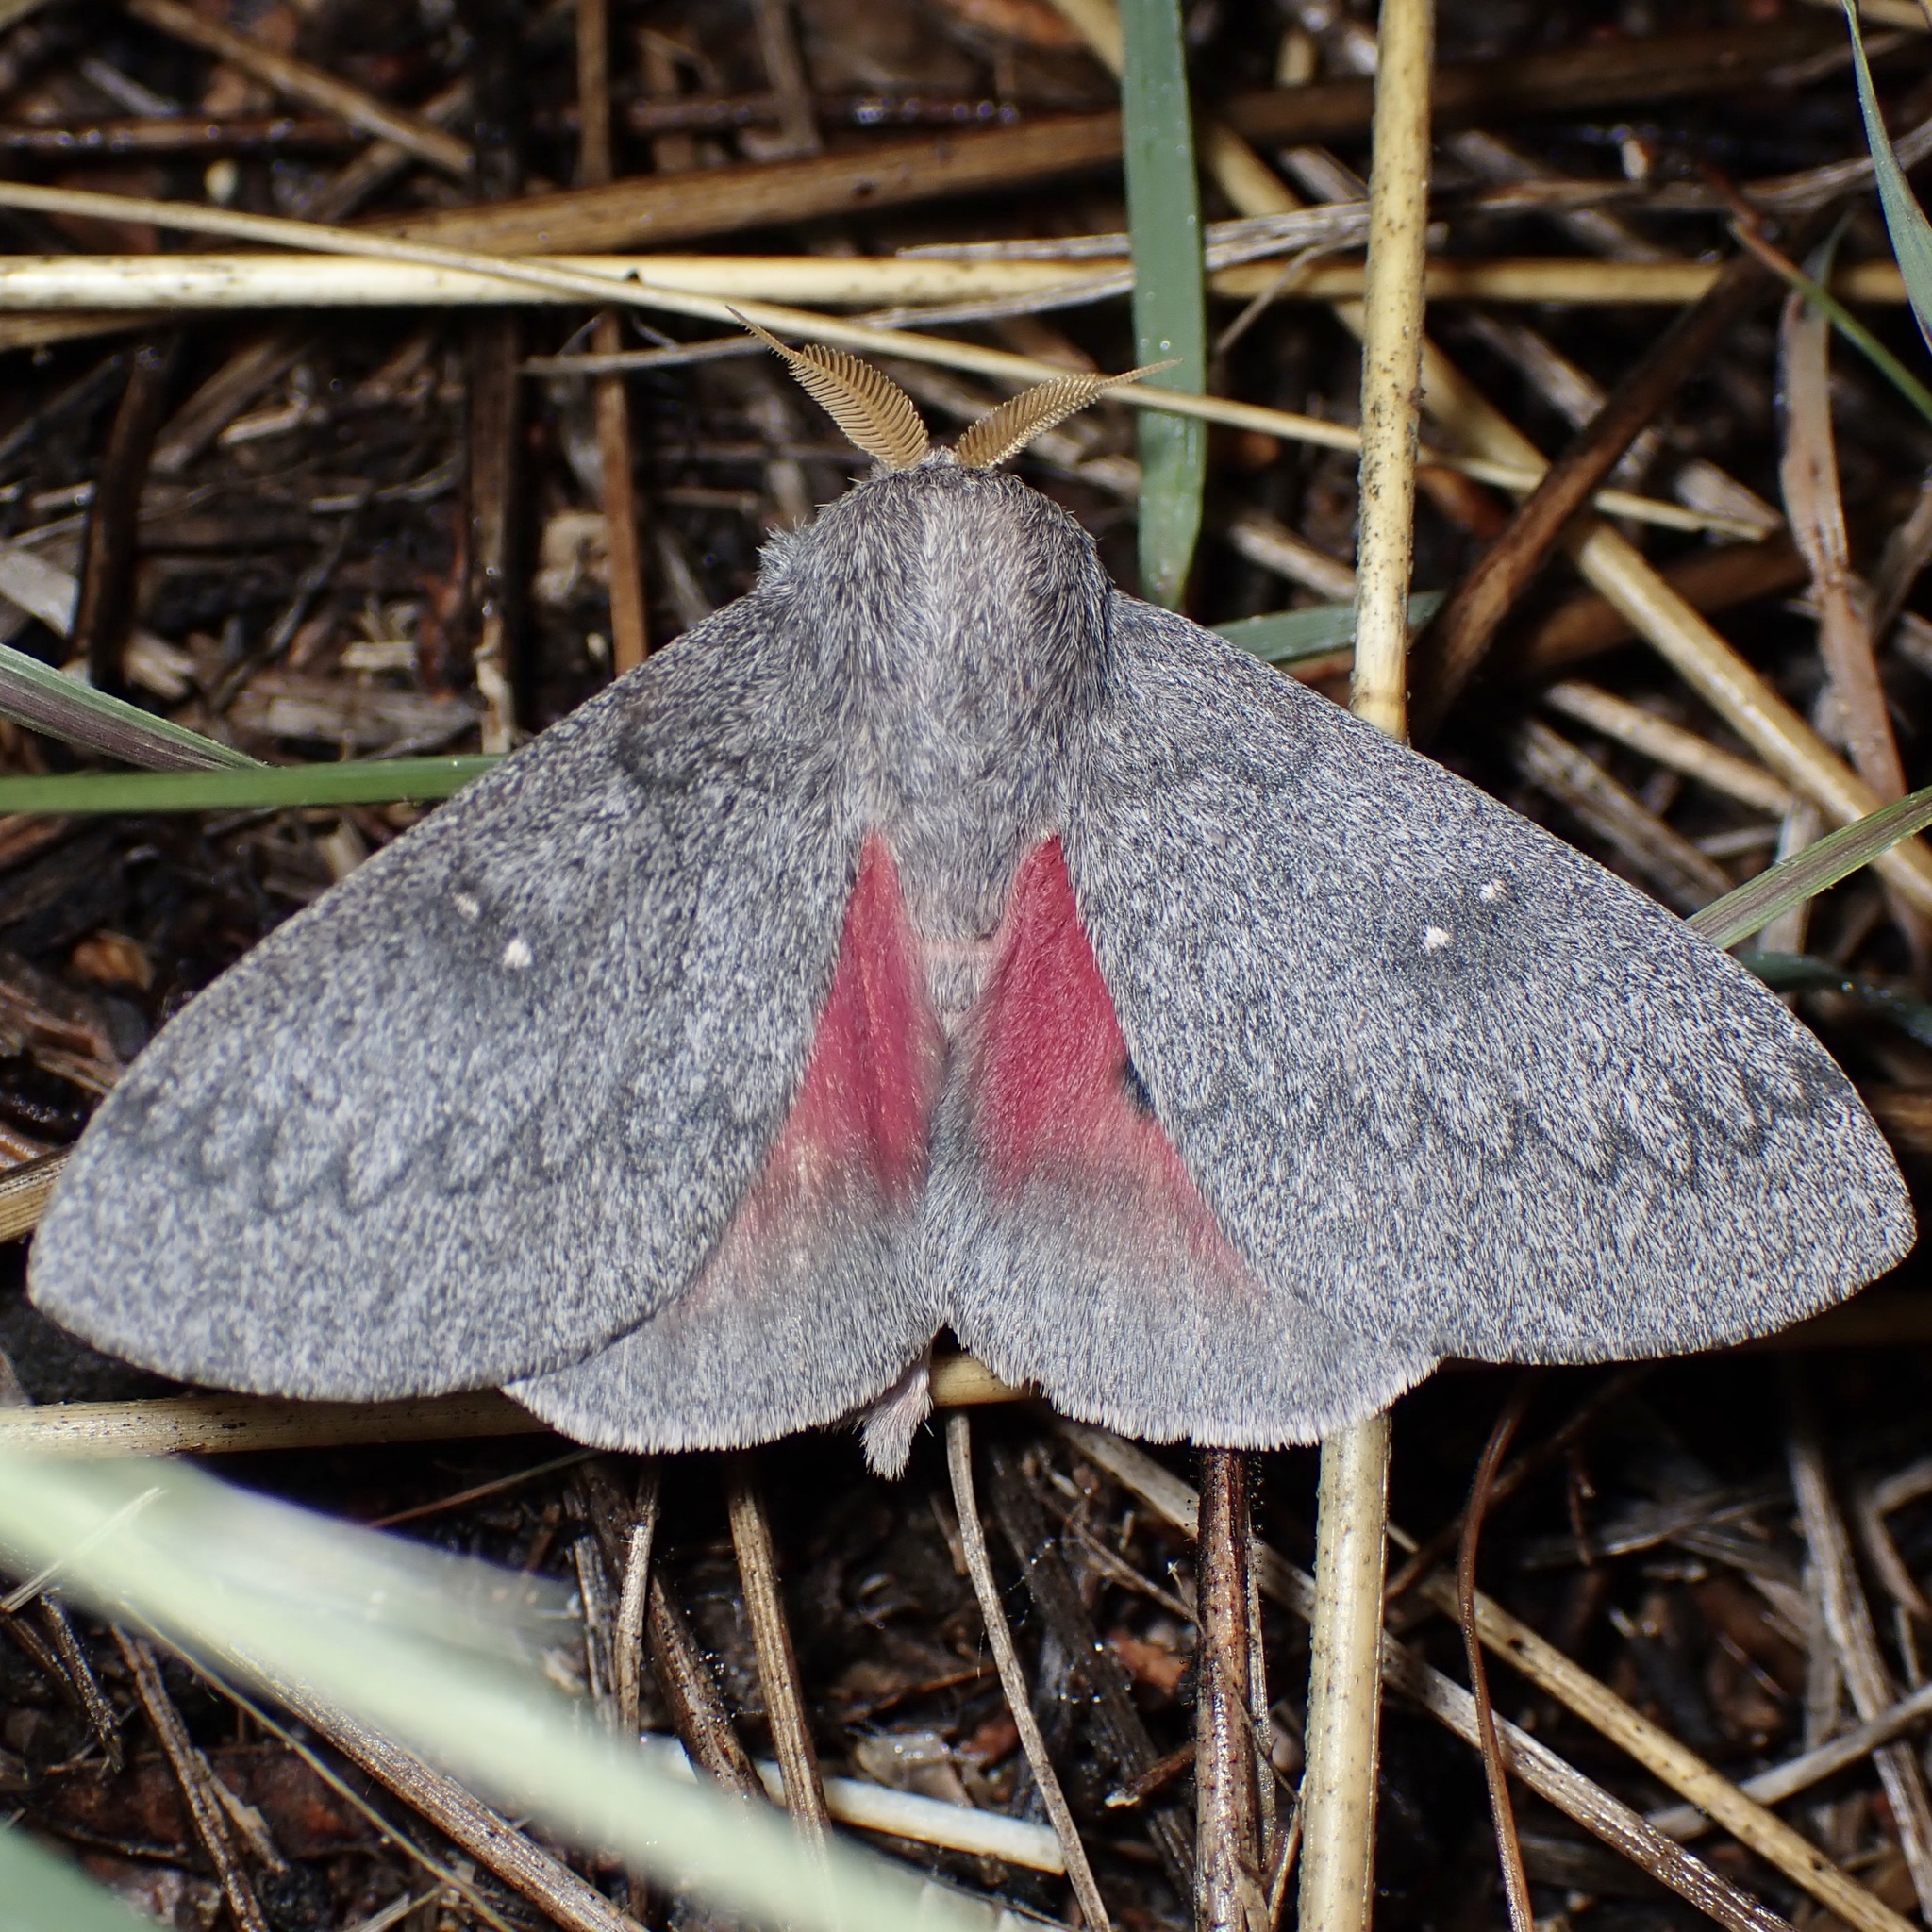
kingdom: Animalia
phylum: Arthropoda
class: Insecta
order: Lepidoptera
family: Saturniidae
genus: Syssphinx
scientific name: Syssphinx hubbardi
